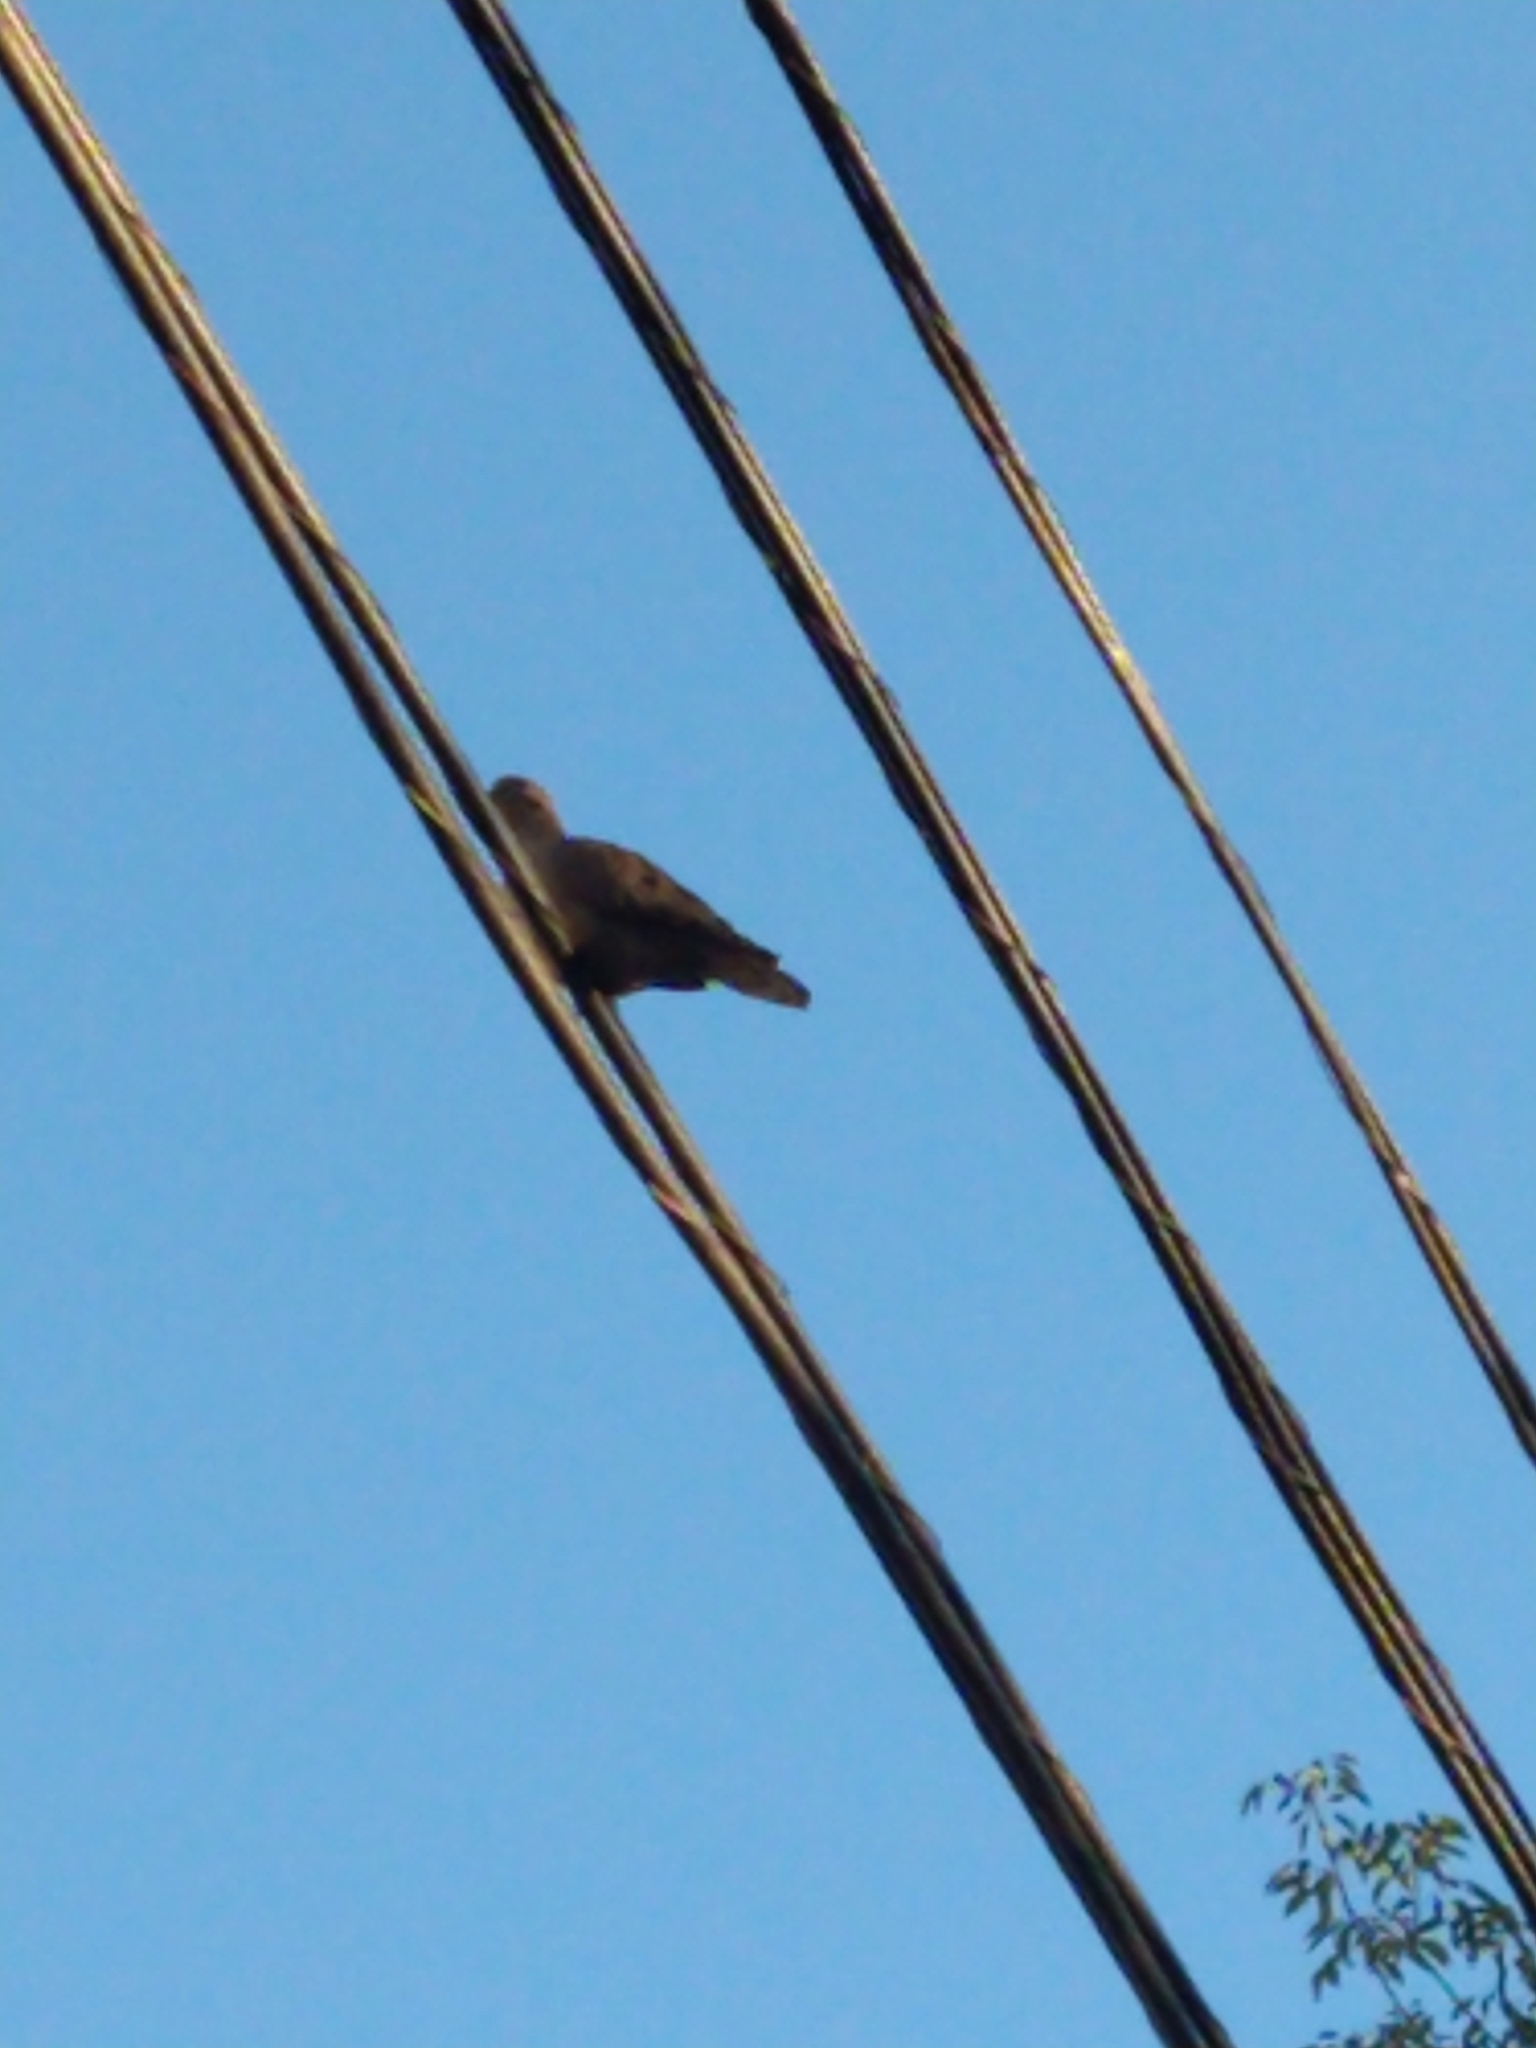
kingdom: Animalia
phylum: Chordata
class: Aves
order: Columbiformes
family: Columbidae
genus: Zenaida
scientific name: Zenaida auriculata
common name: Eared dove
